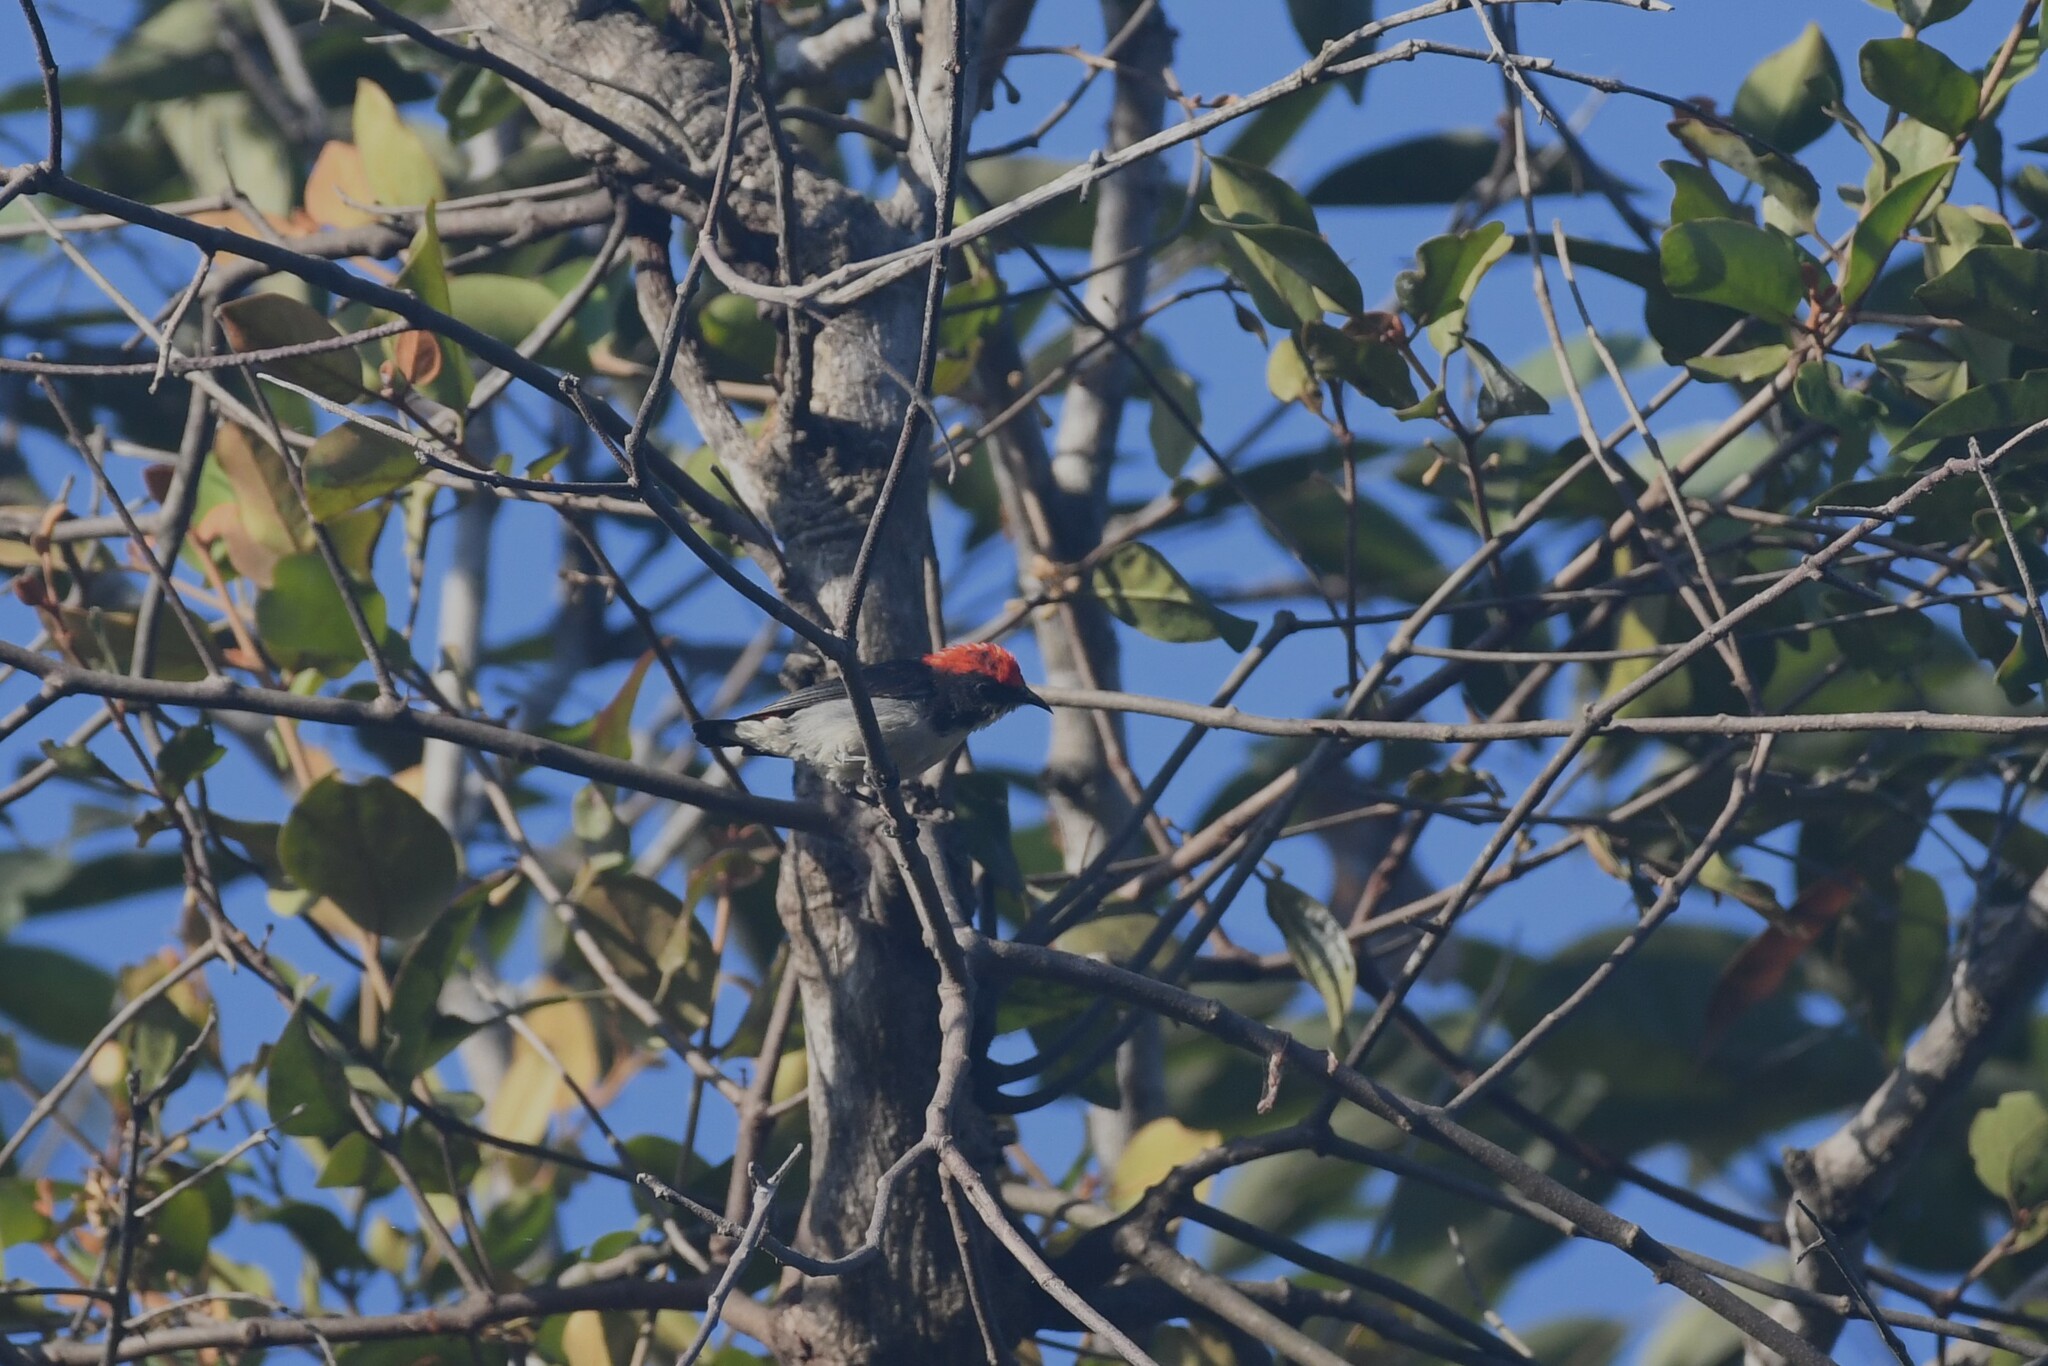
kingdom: Animalia
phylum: Chordata
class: Aves
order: Passeriformes
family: Dicaeidae
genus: Dicaeum
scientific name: Dicaeum cruentatum
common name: Scarlet-backed flowerpecker
